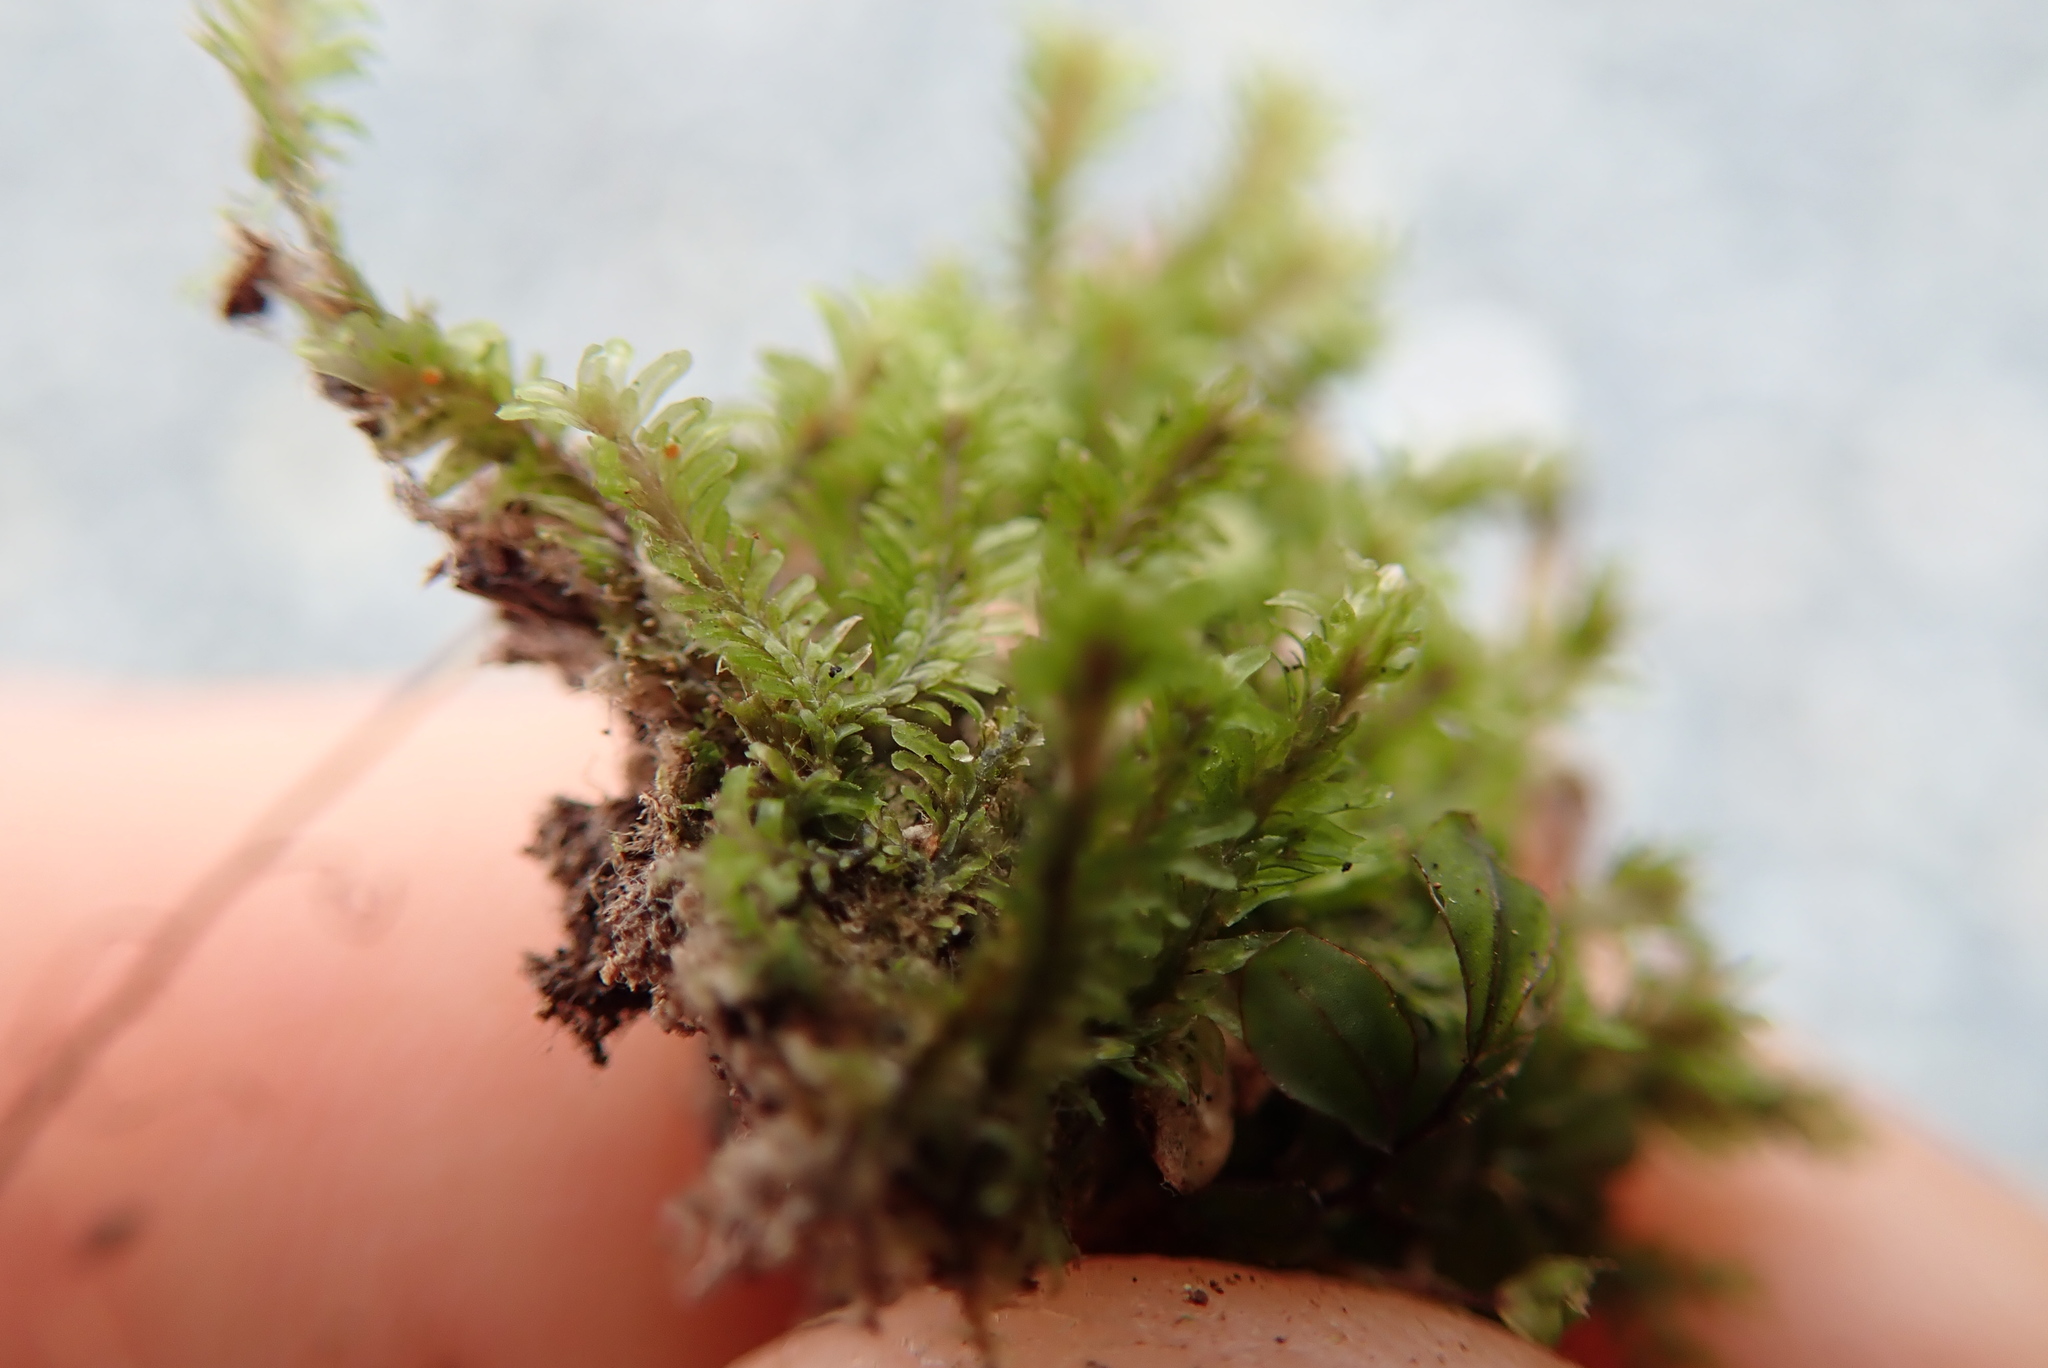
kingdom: Plantae
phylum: Marchantiophyta
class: Jungermanniopsida
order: Jungermanniales
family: Scapaniaceae
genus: Diplophyllum
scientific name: Diplophyllum albicans
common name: White earwort
